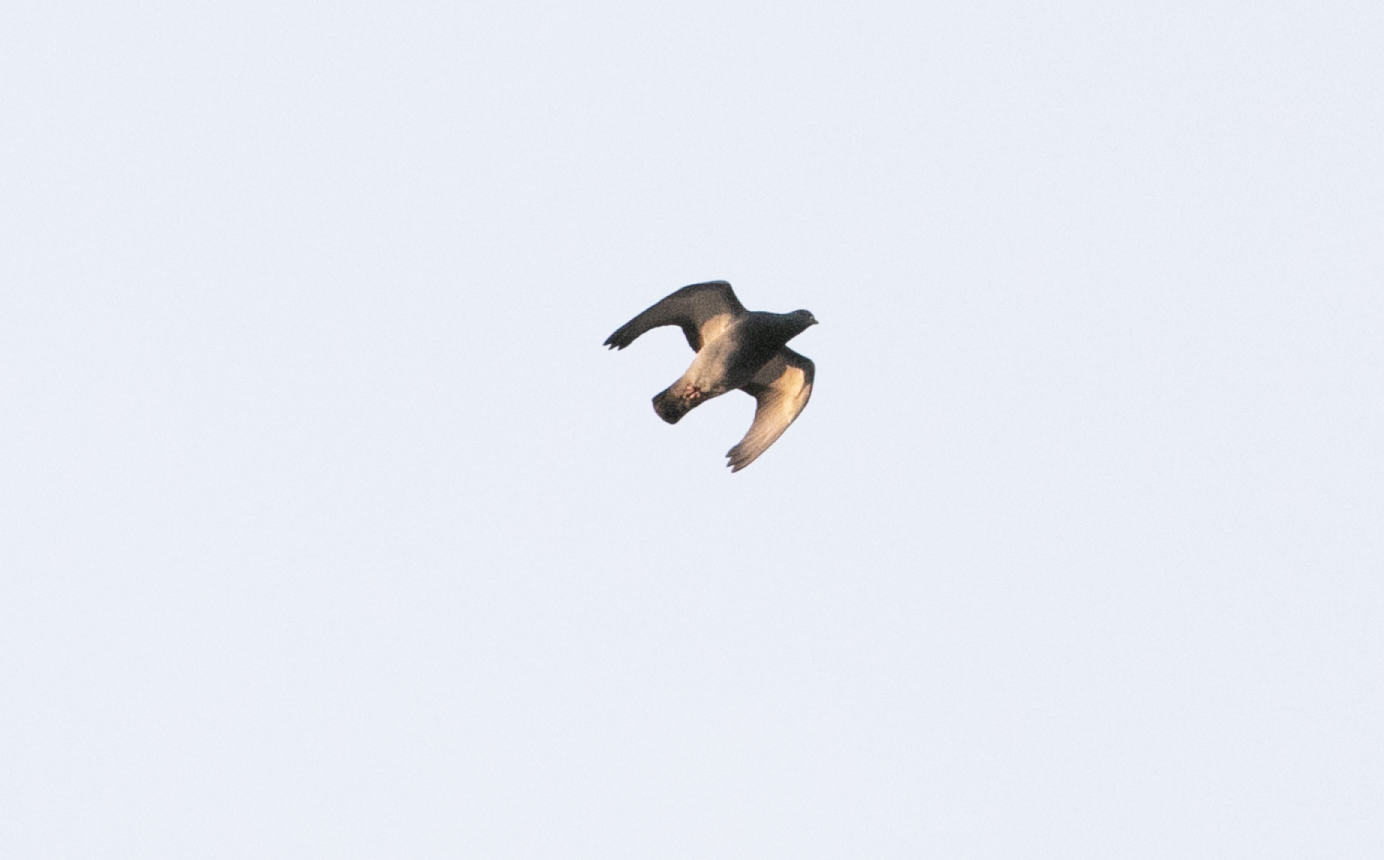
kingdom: Animalia
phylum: Chordata
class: Aves
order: Columbiformes
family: Columbidae
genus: Columba
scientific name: Columba livia
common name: Rock pigeon
